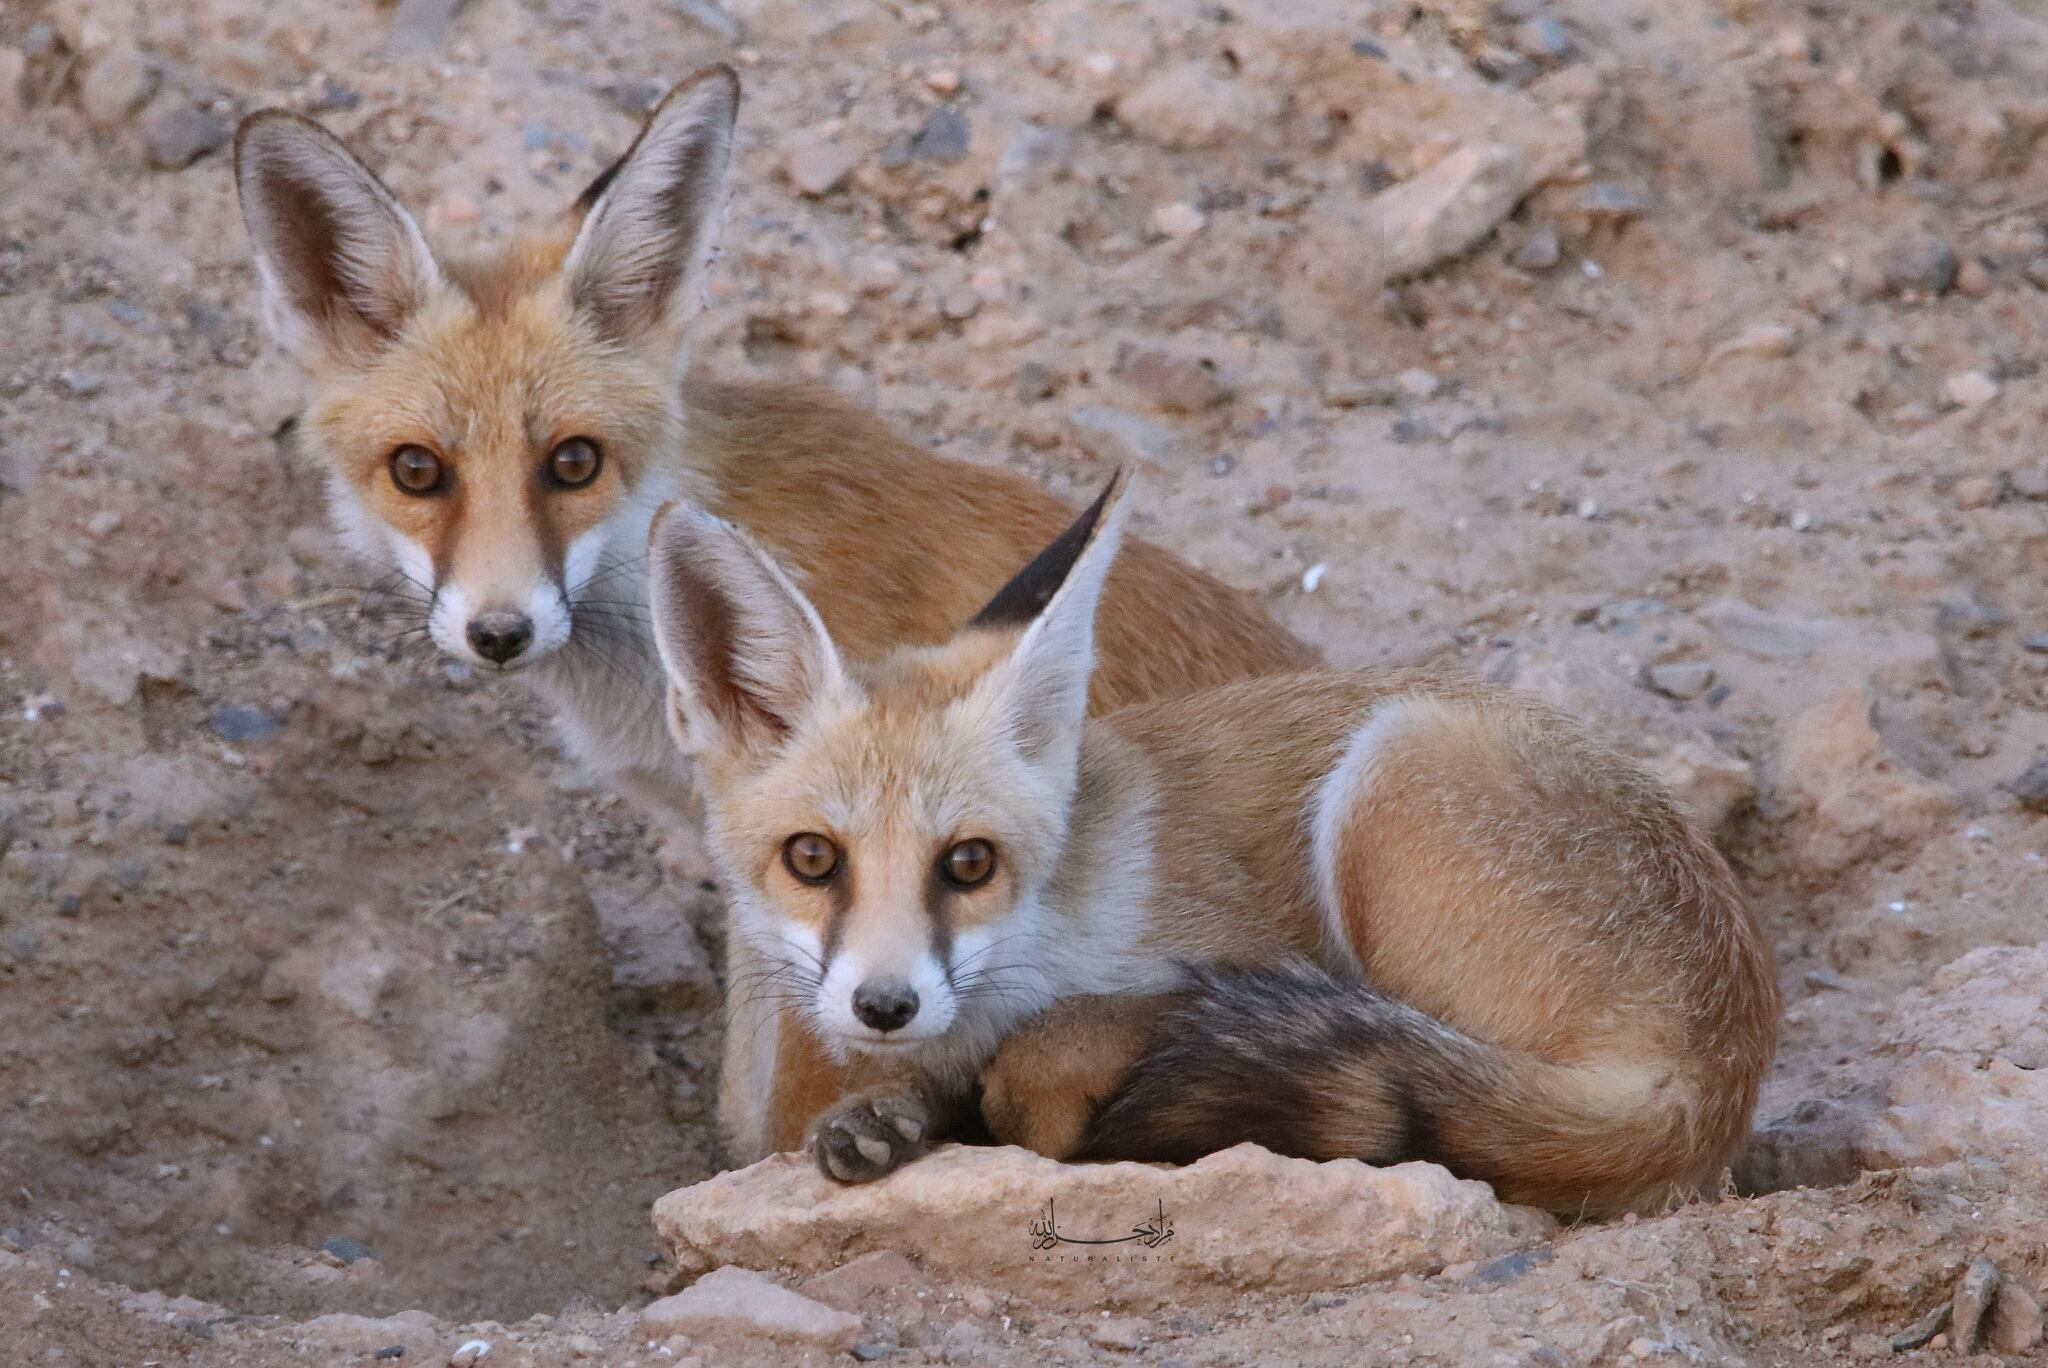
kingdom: Animalia
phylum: Chordata
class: Mammalia
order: Carnivora
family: Canidae
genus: Vulpes
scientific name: Vulpes vulpes
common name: Red fox
